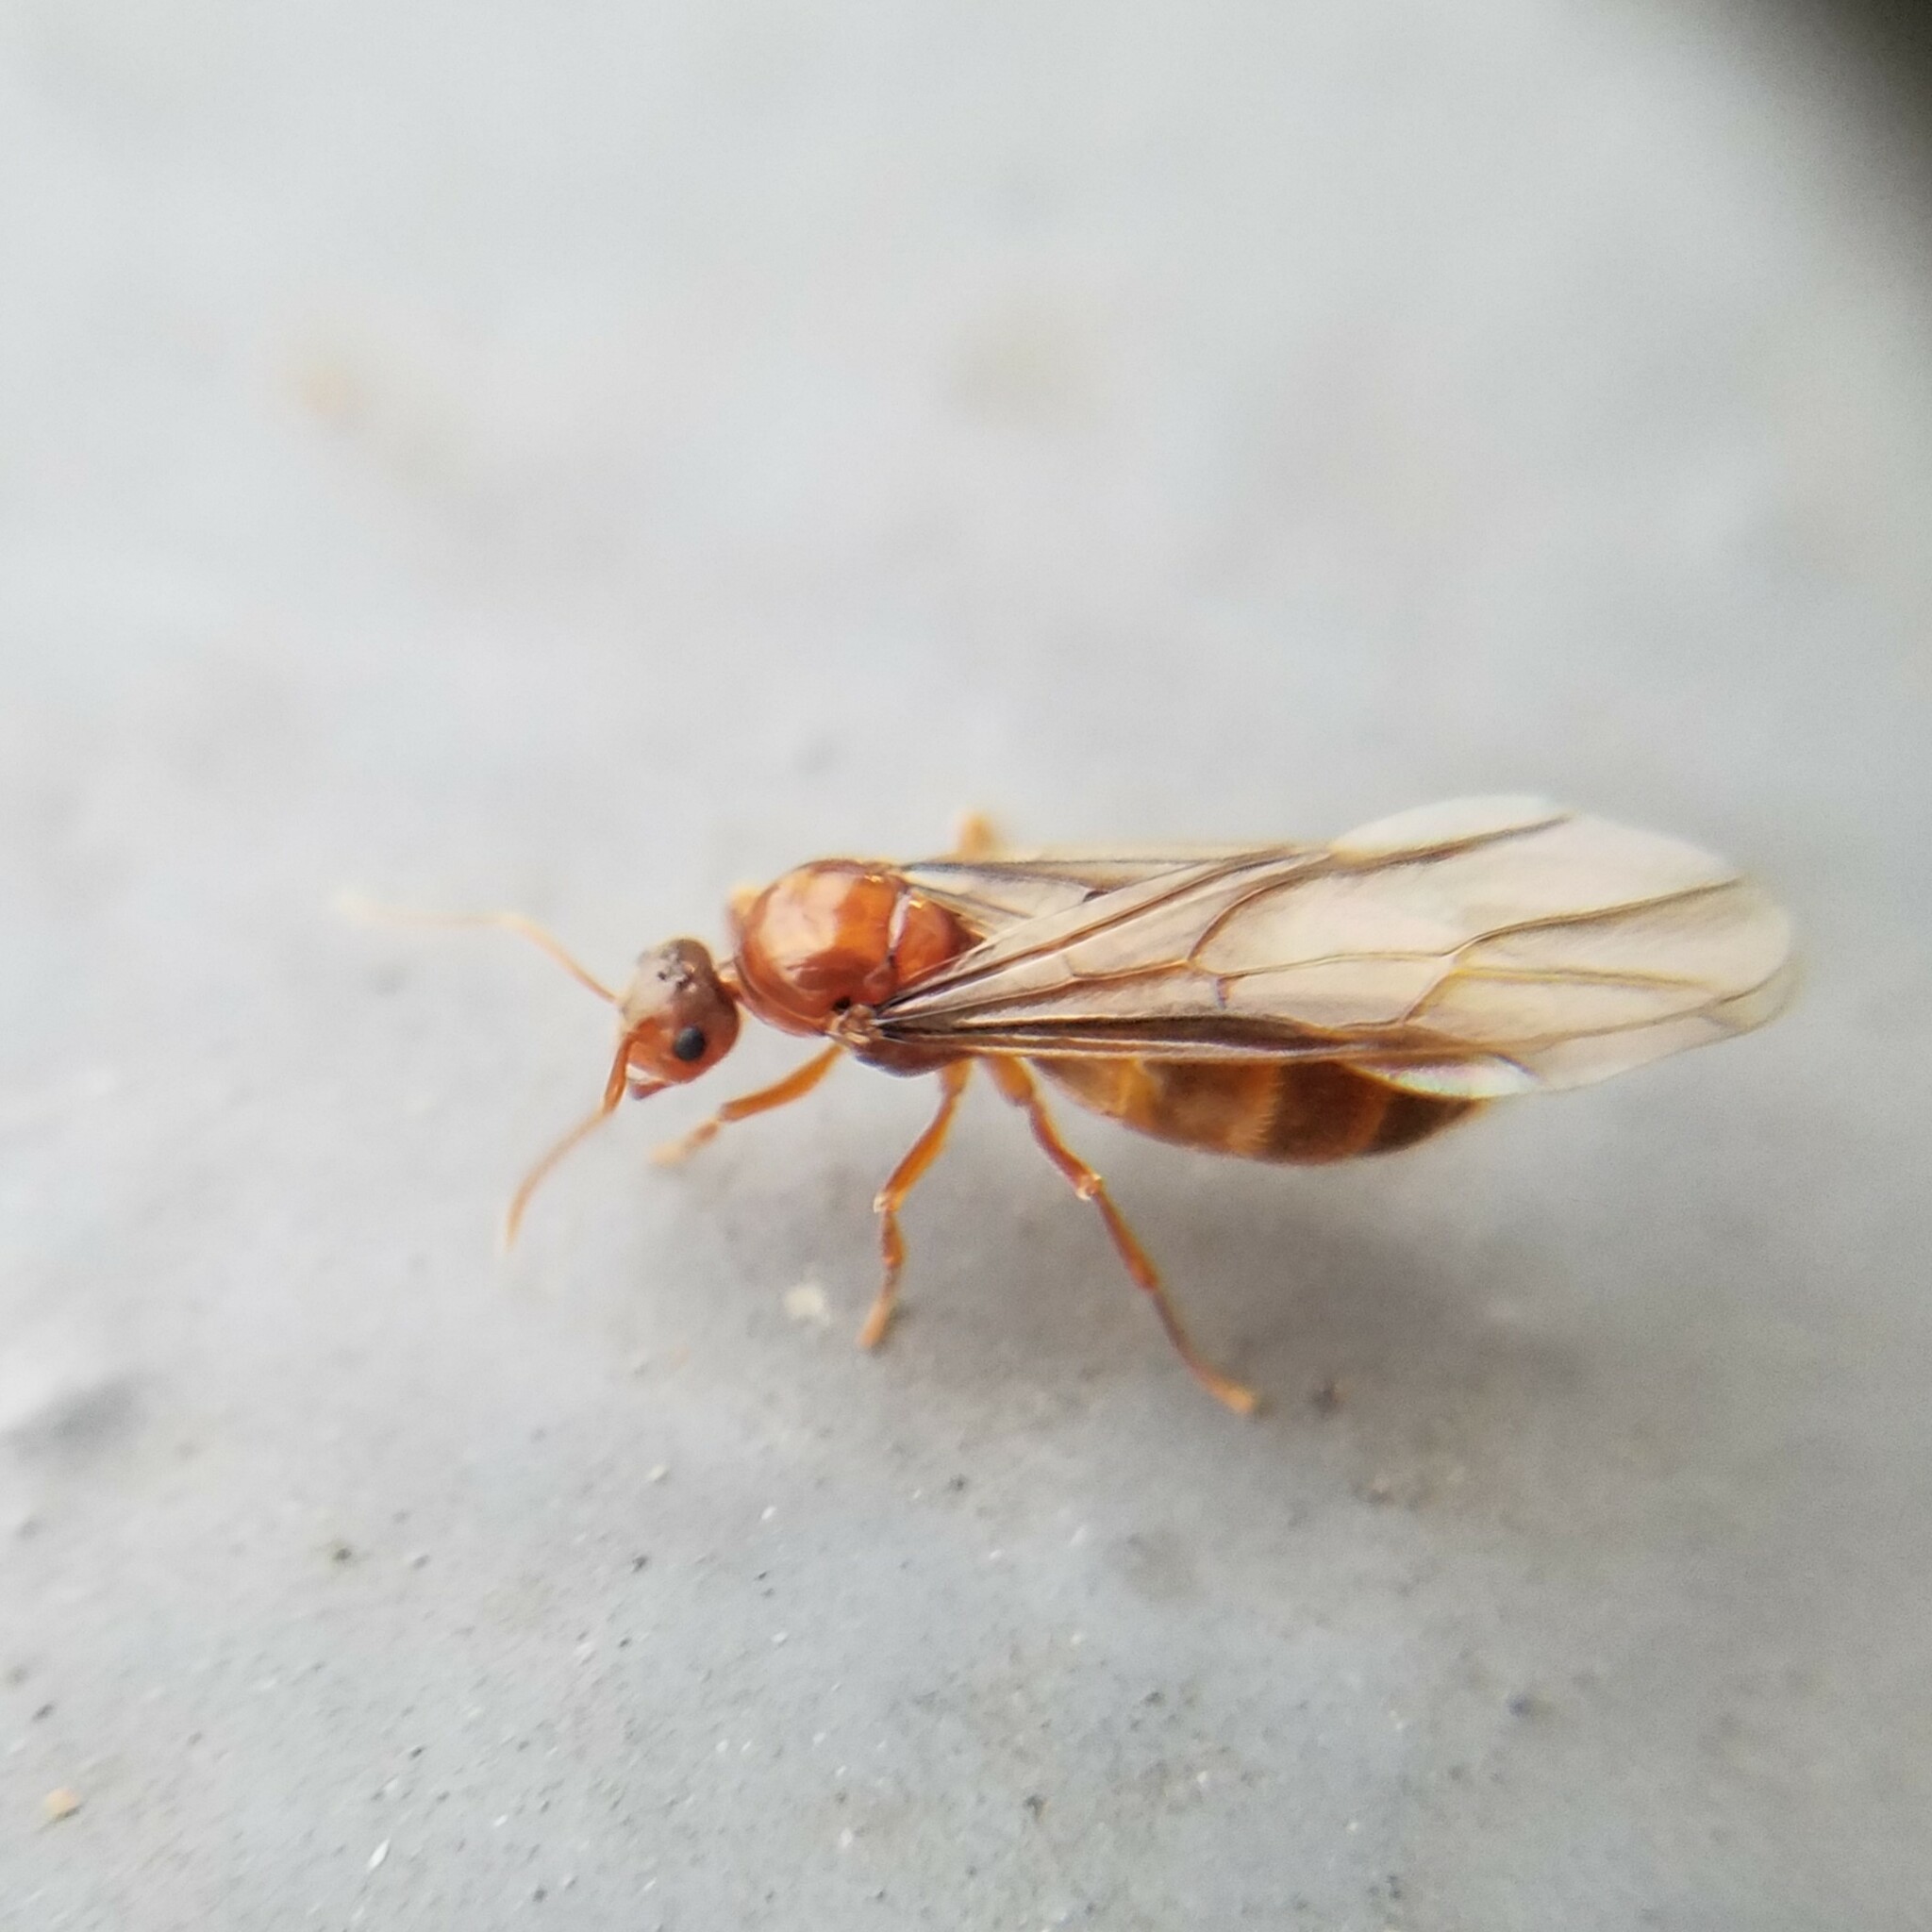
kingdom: Animalia
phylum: Arthropoda
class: Insecta
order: Hymenoptera
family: Formicidae
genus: Prenolepis
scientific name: Prenolepis imparis
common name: Small honey ant
